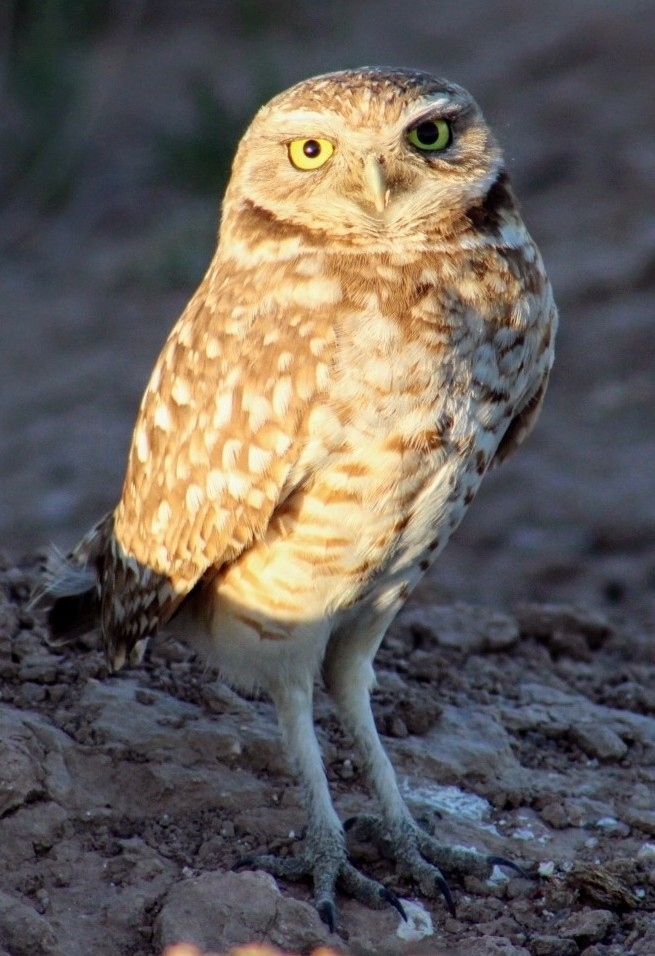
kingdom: Animalia
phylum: Chordata
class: Aves
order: Strigiformes
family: Strigidae
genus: Athene
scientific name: Athene cunicularia
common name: Burrowing owl
